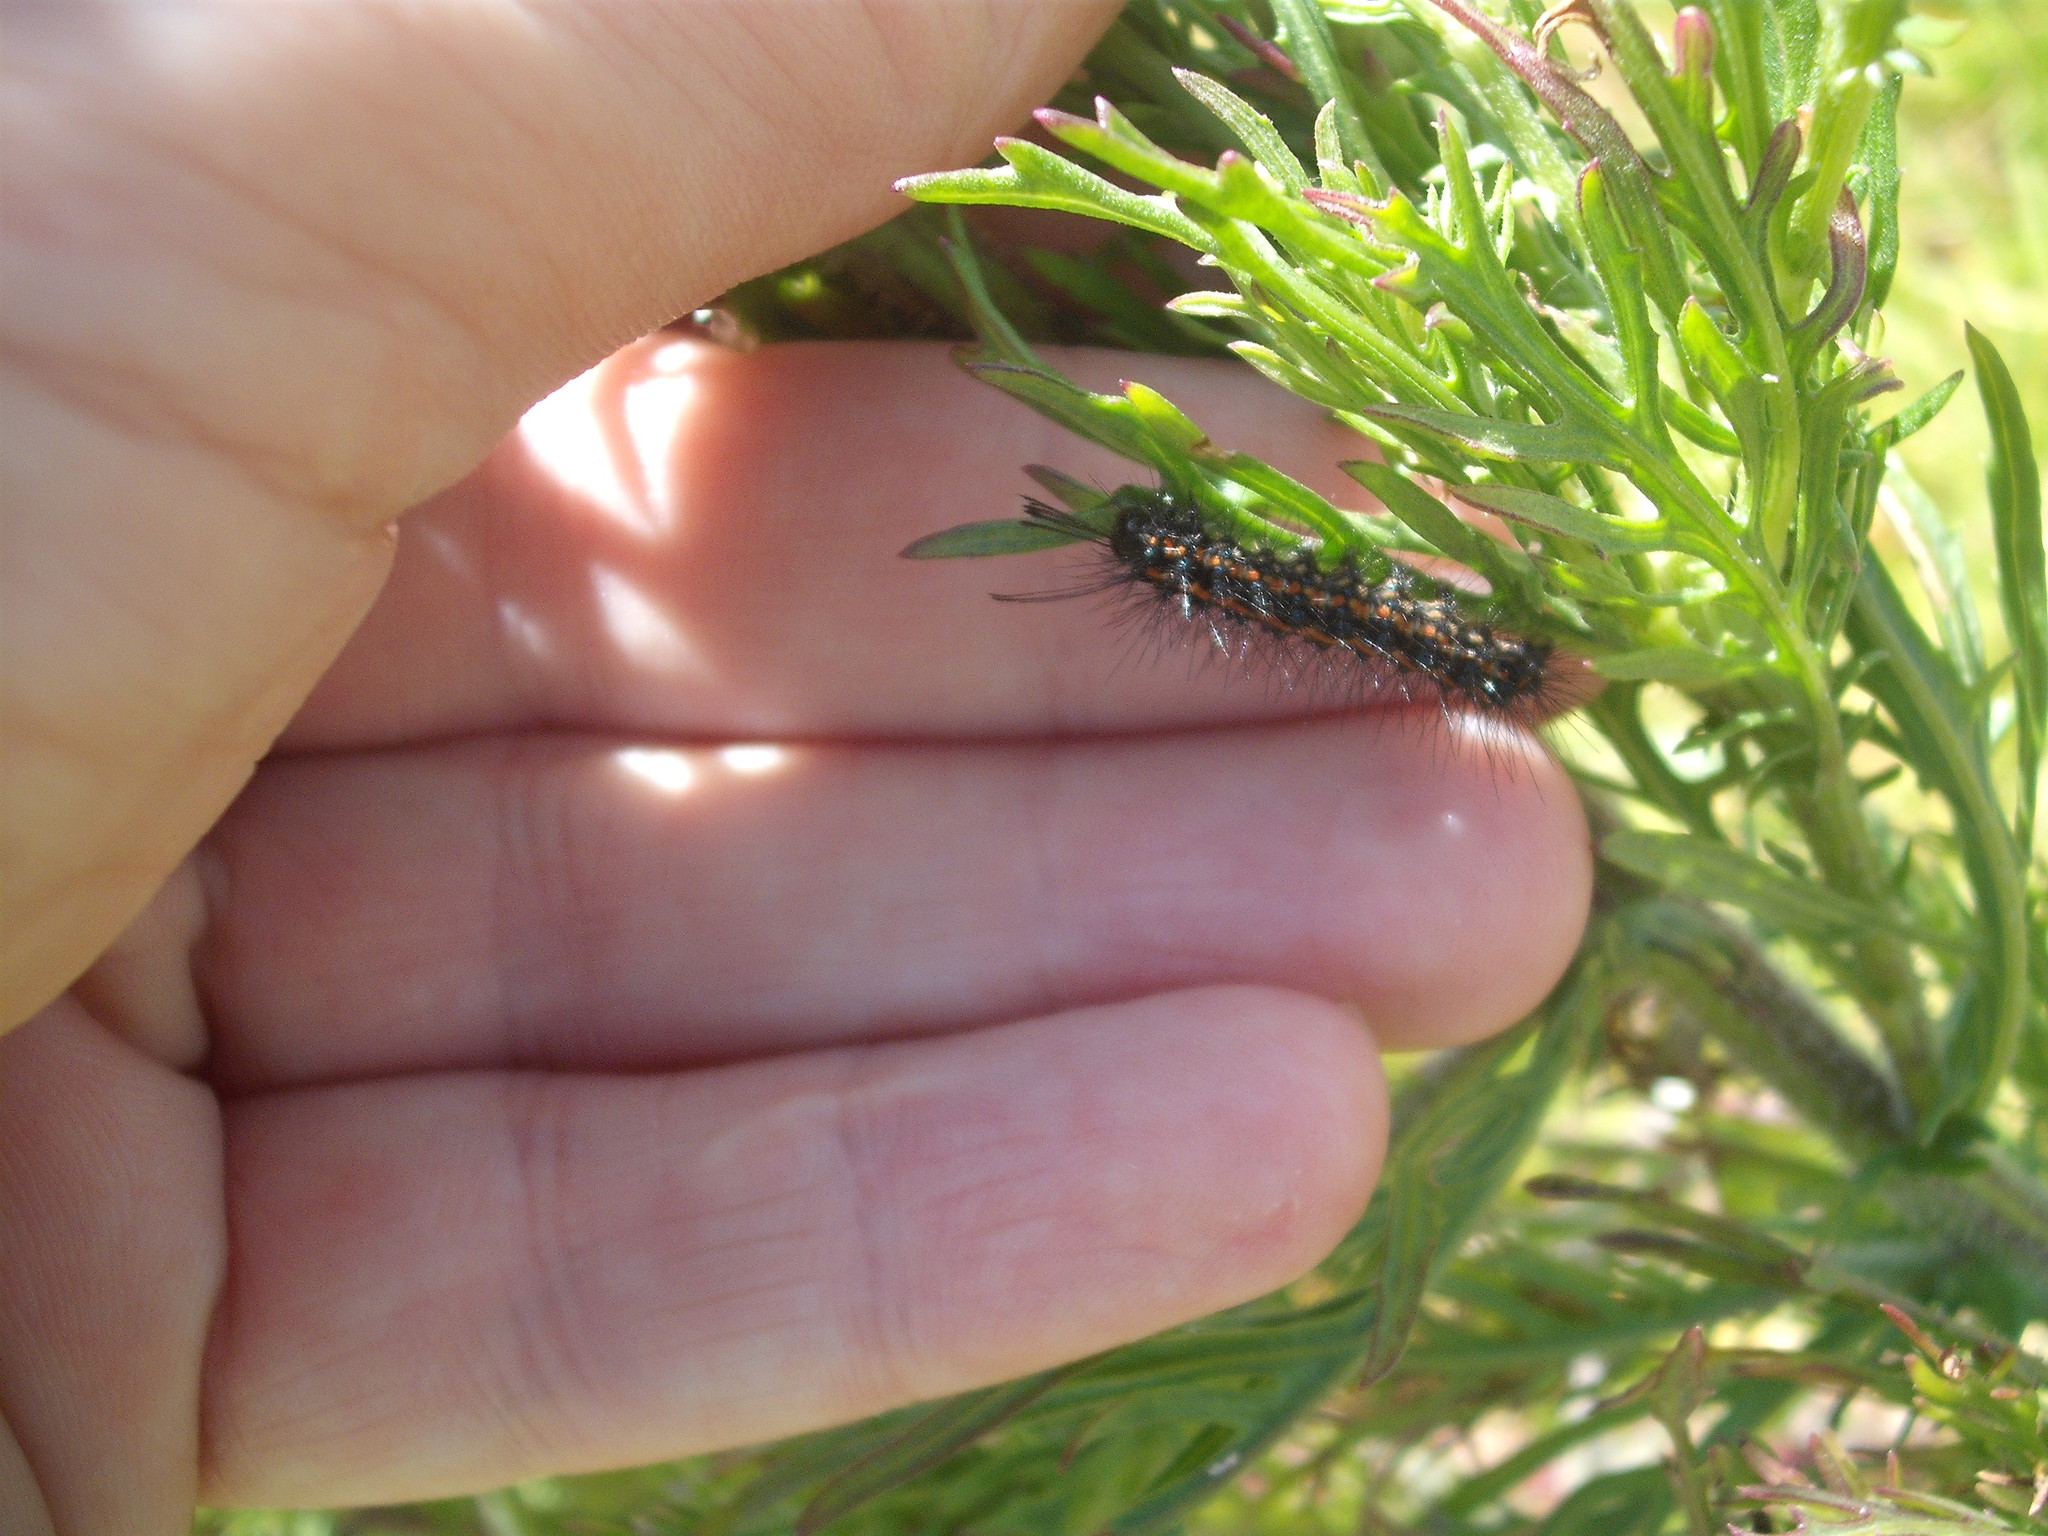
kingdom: Animalia
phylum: Arthropoda
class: Insecta
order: Lepidoptera
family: Erebidae
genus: Nyctemera
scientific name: Nyctemera amicus
